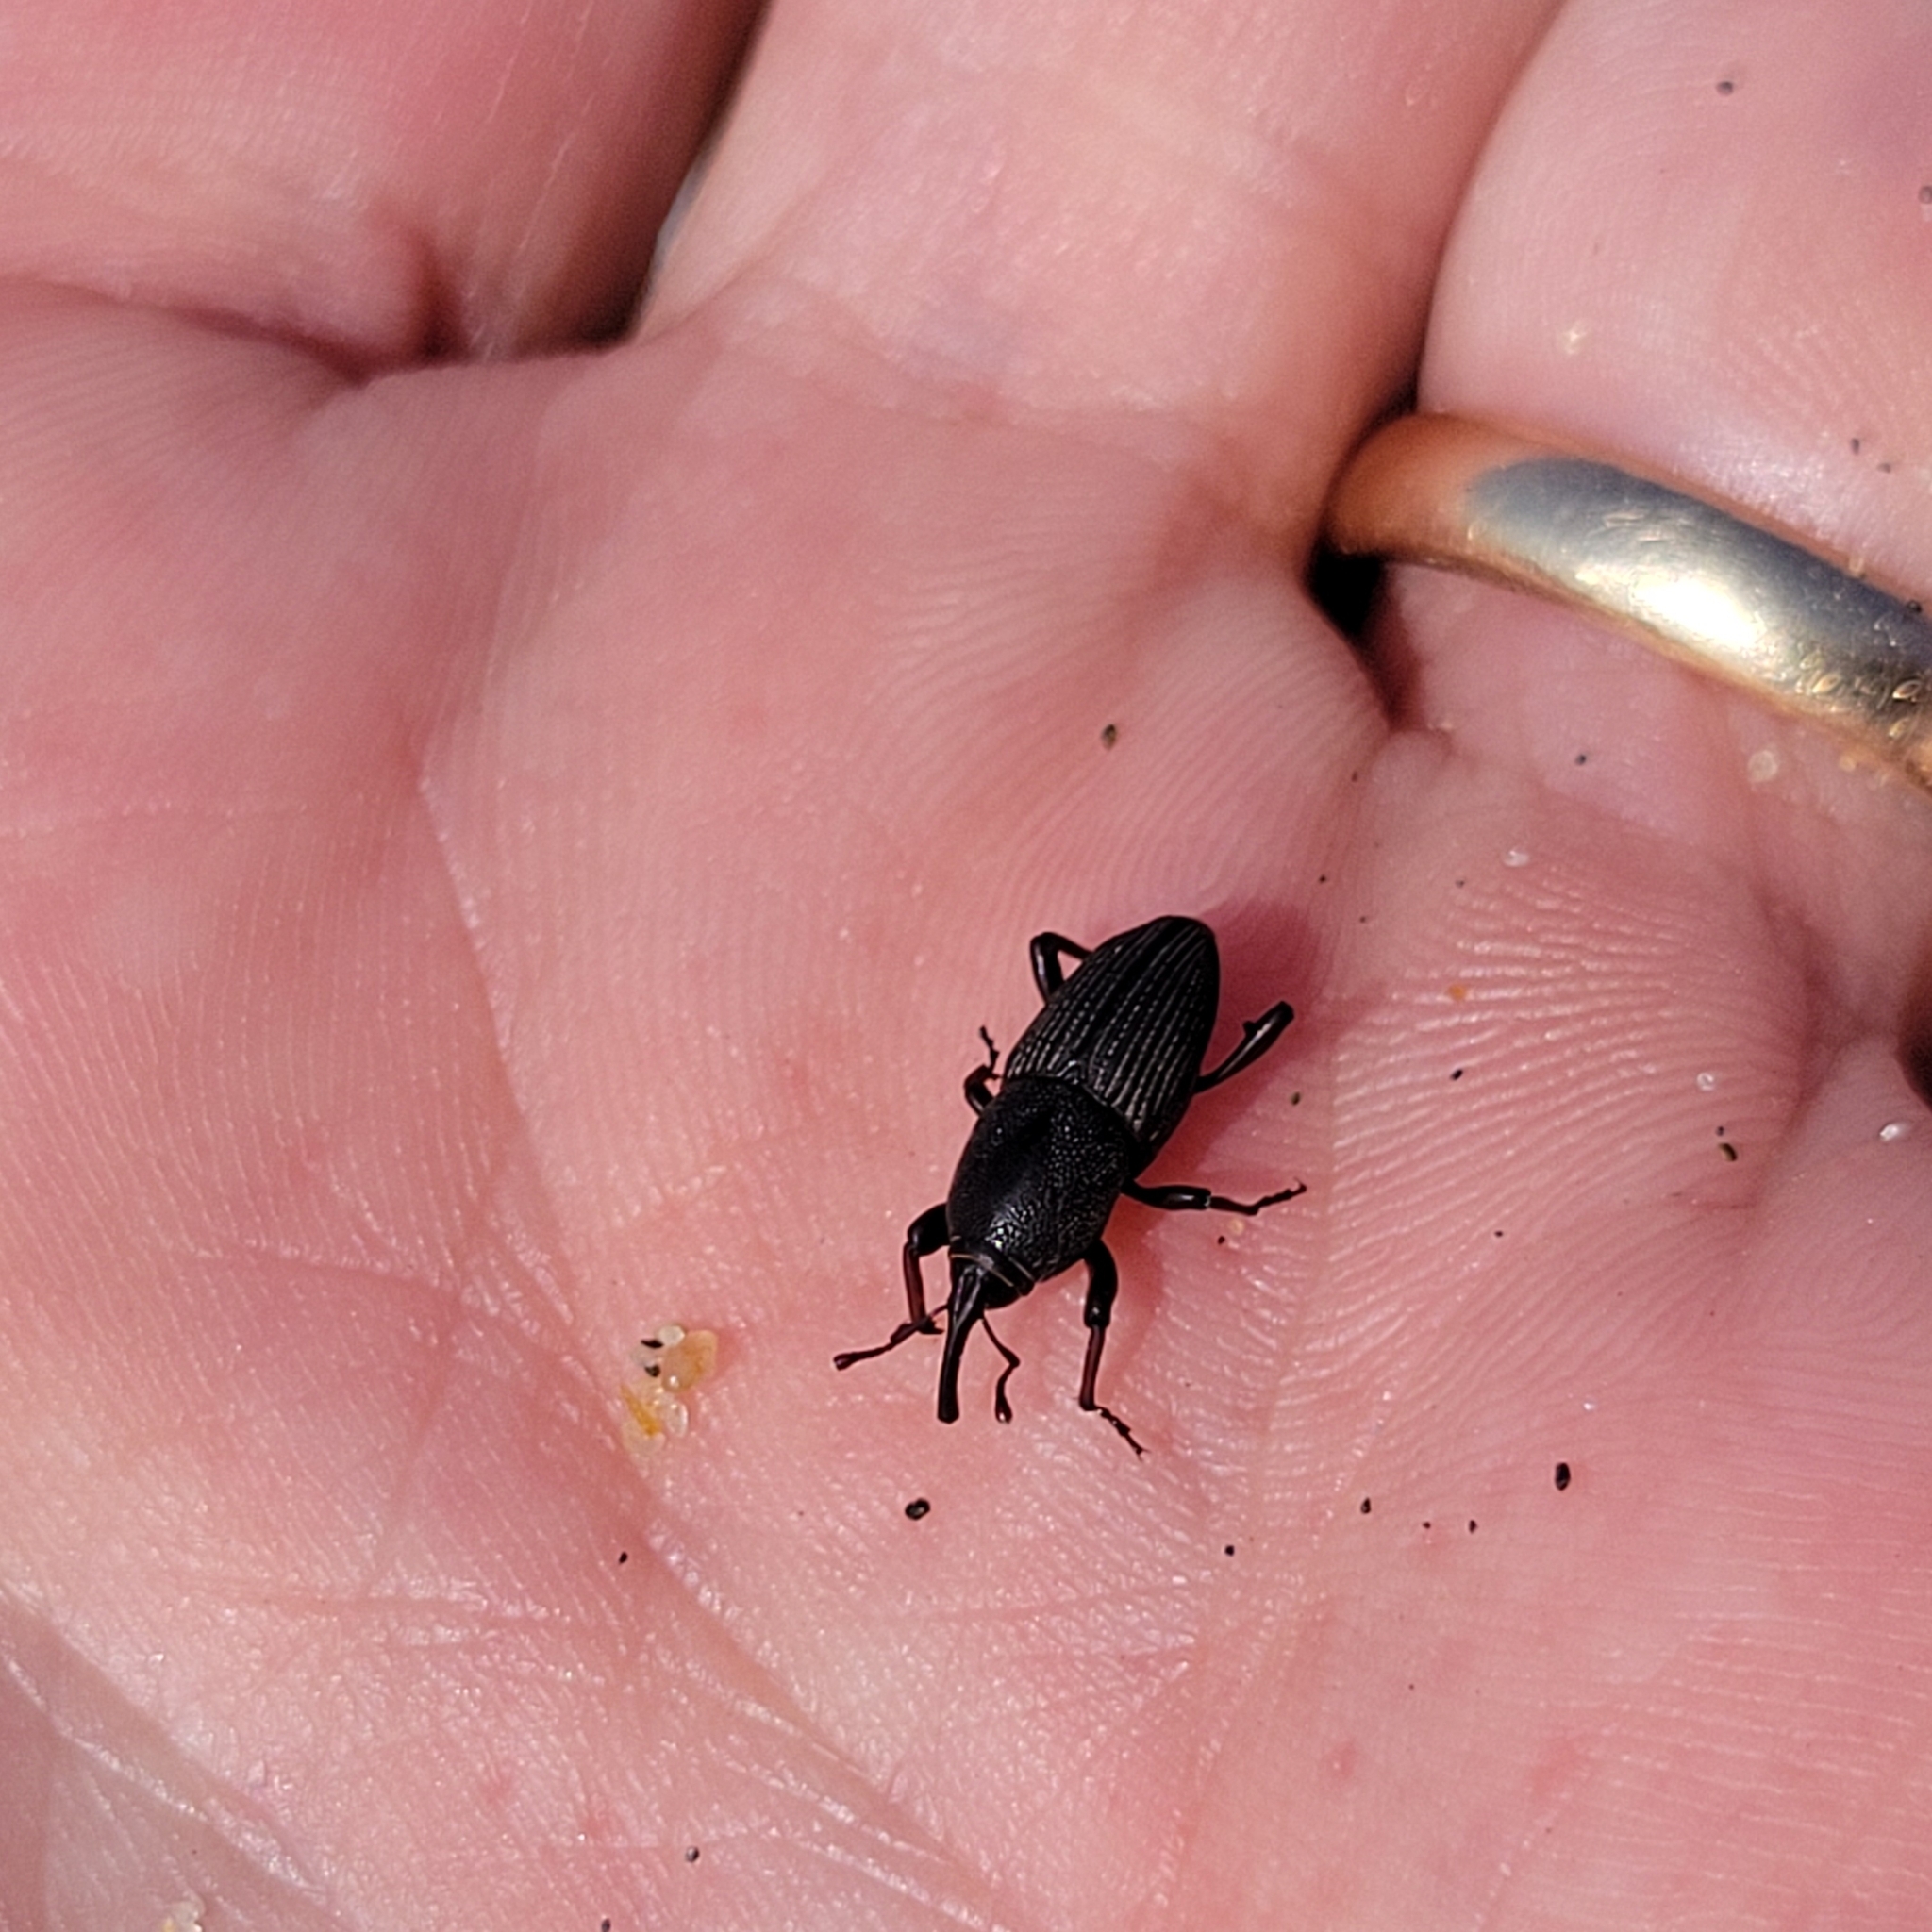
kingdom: Animalia
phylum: Arthropoda
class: Insecta
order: Coleoptera
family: Dryophthoridae
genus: Sphenophorus
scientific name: Sphenophorus necydaloides
